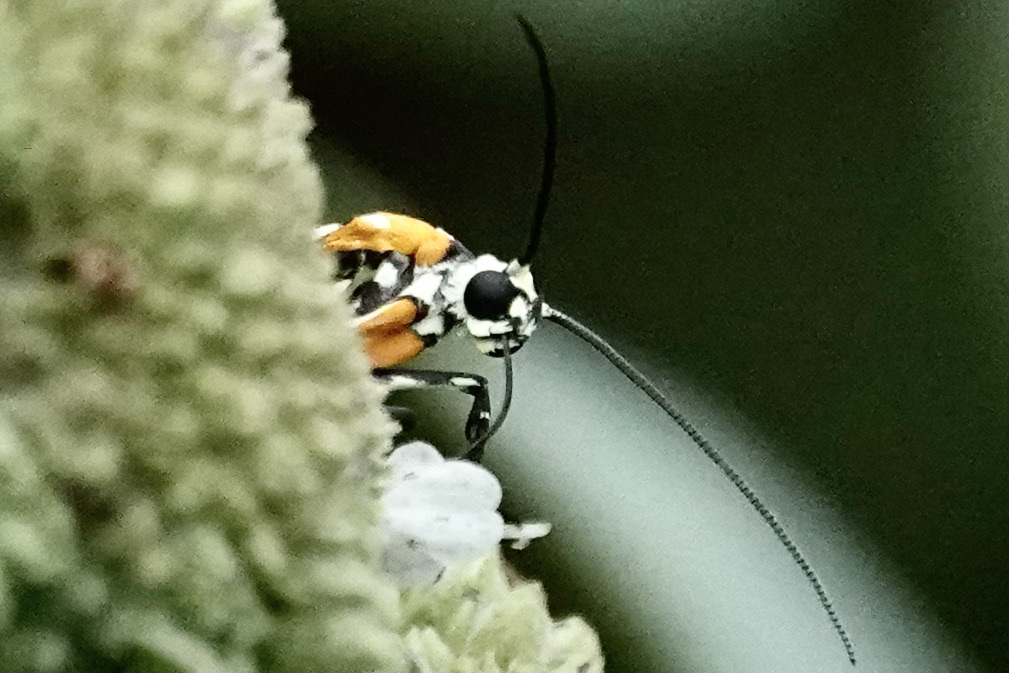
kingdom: Animalia
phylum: Arthropoda
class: Insecta
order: Lepidoptera
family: Attevidae
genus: Atteva
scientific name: Atteva punctella
